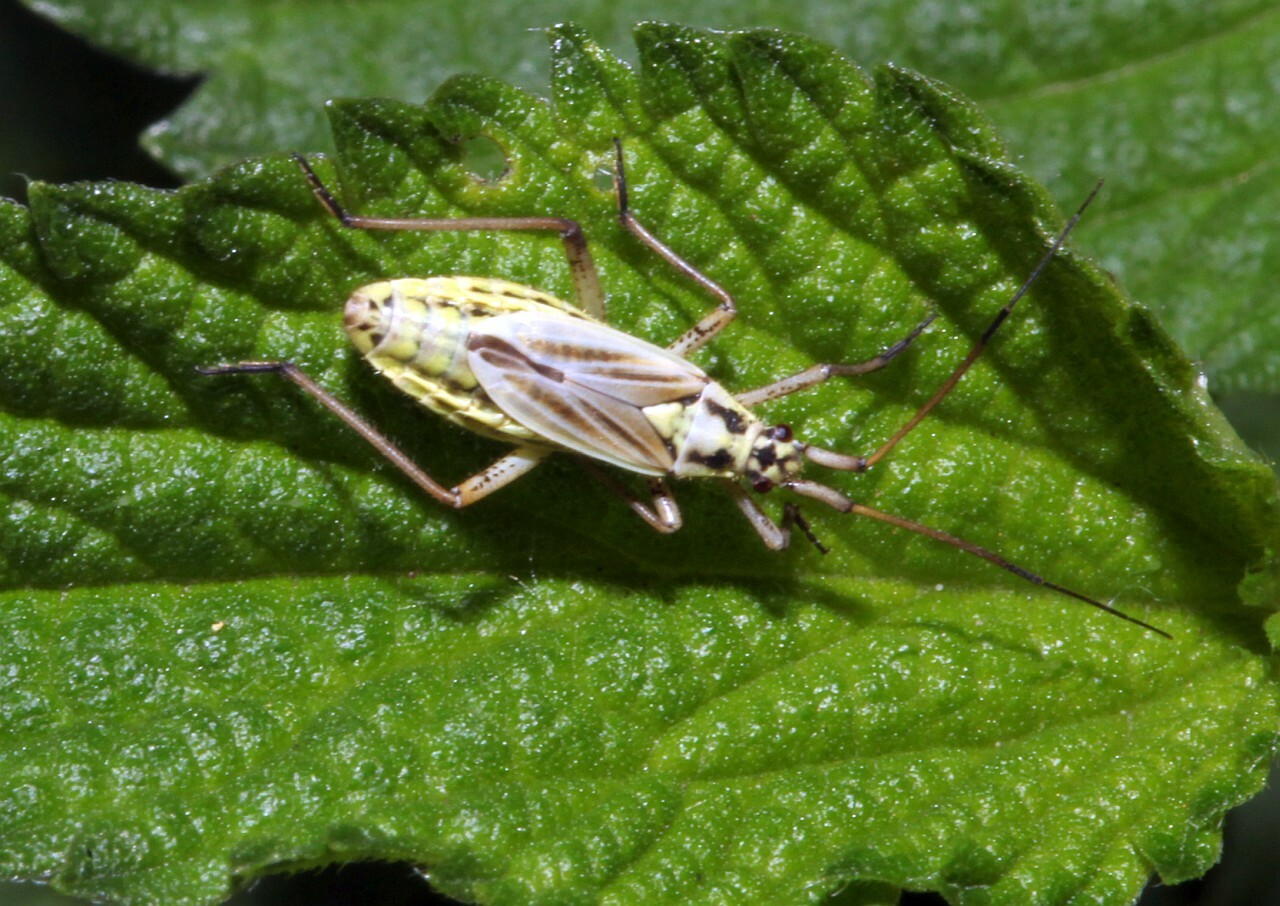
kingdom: Animalia
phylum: Arthropoda
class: Insecta
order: Hemiptera
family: Miridae
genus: Leptopterna
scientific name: Leptopterna dolabrata
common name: Meadow plant bug
